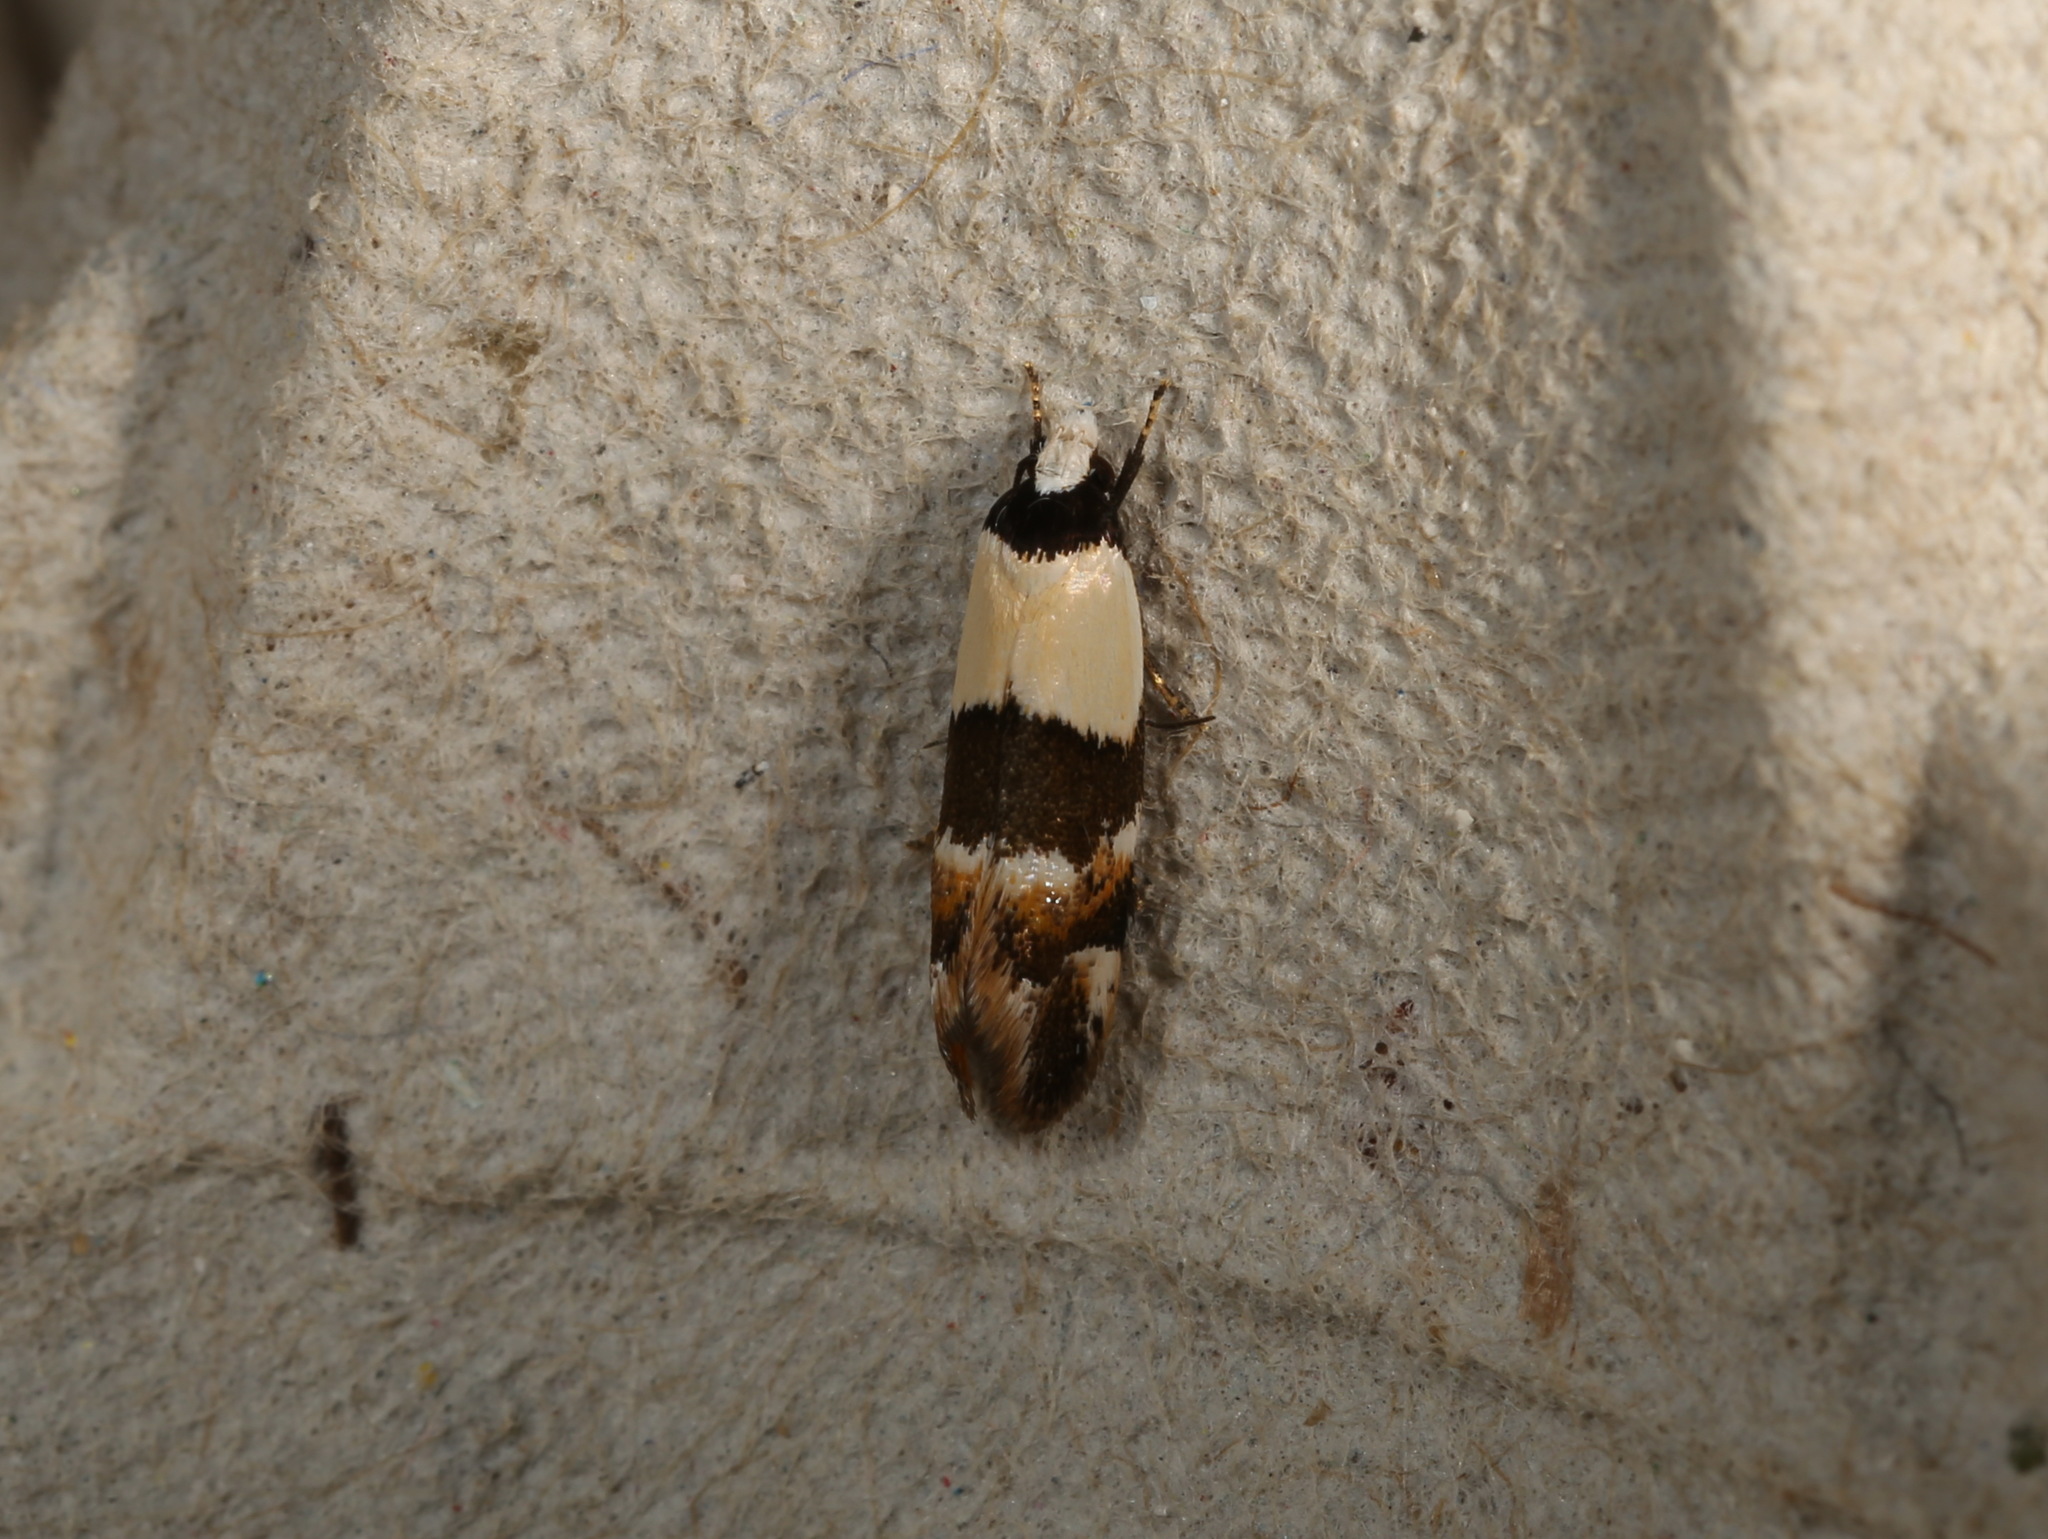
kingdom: Animalia
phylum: Arthropoda
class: Insecta
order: Lepidoptera
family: Oecophoridae
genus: Euphiltra
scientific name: Euphiltra eroticella
